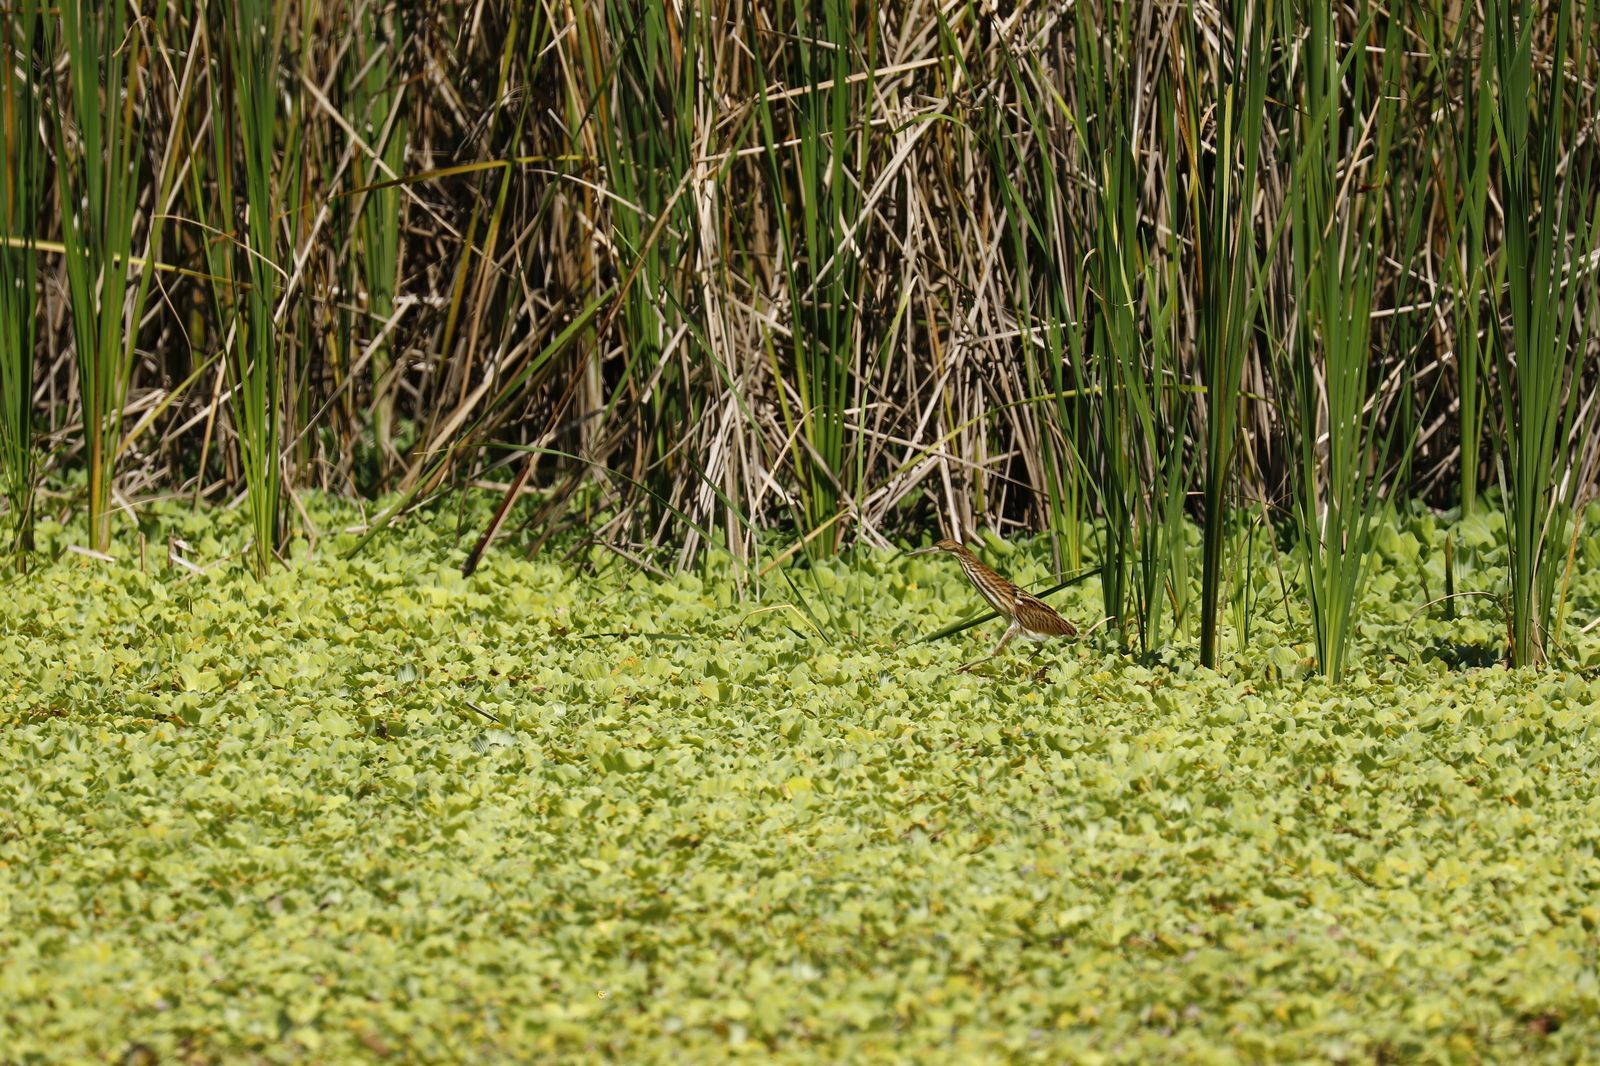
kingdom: Animalia
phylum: Chordata
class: Aves
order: Pelecaniformes
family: Ardeidae
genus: Ixobrychus
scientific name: Ixobrychus cinnamomeus
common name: Cinnamon bittern
